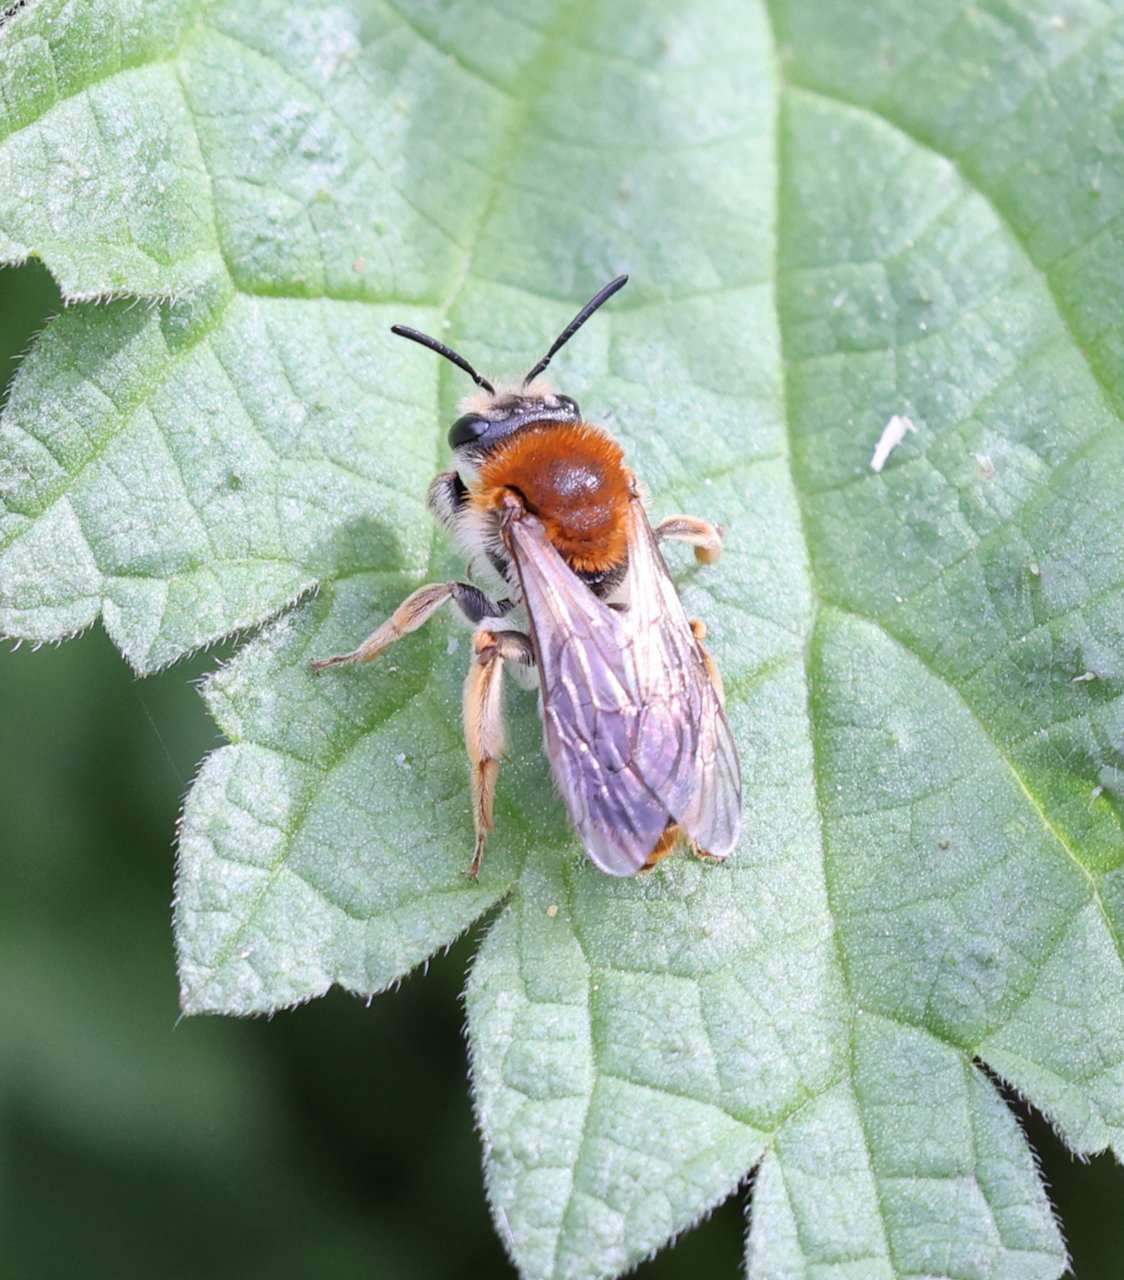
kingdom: Animalia
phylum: Arthropoda
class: Insecta
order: Hymenoptera
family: Andrenidae
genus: Andrena
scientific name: Andrena haemorrhoa
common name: Early mining bee
